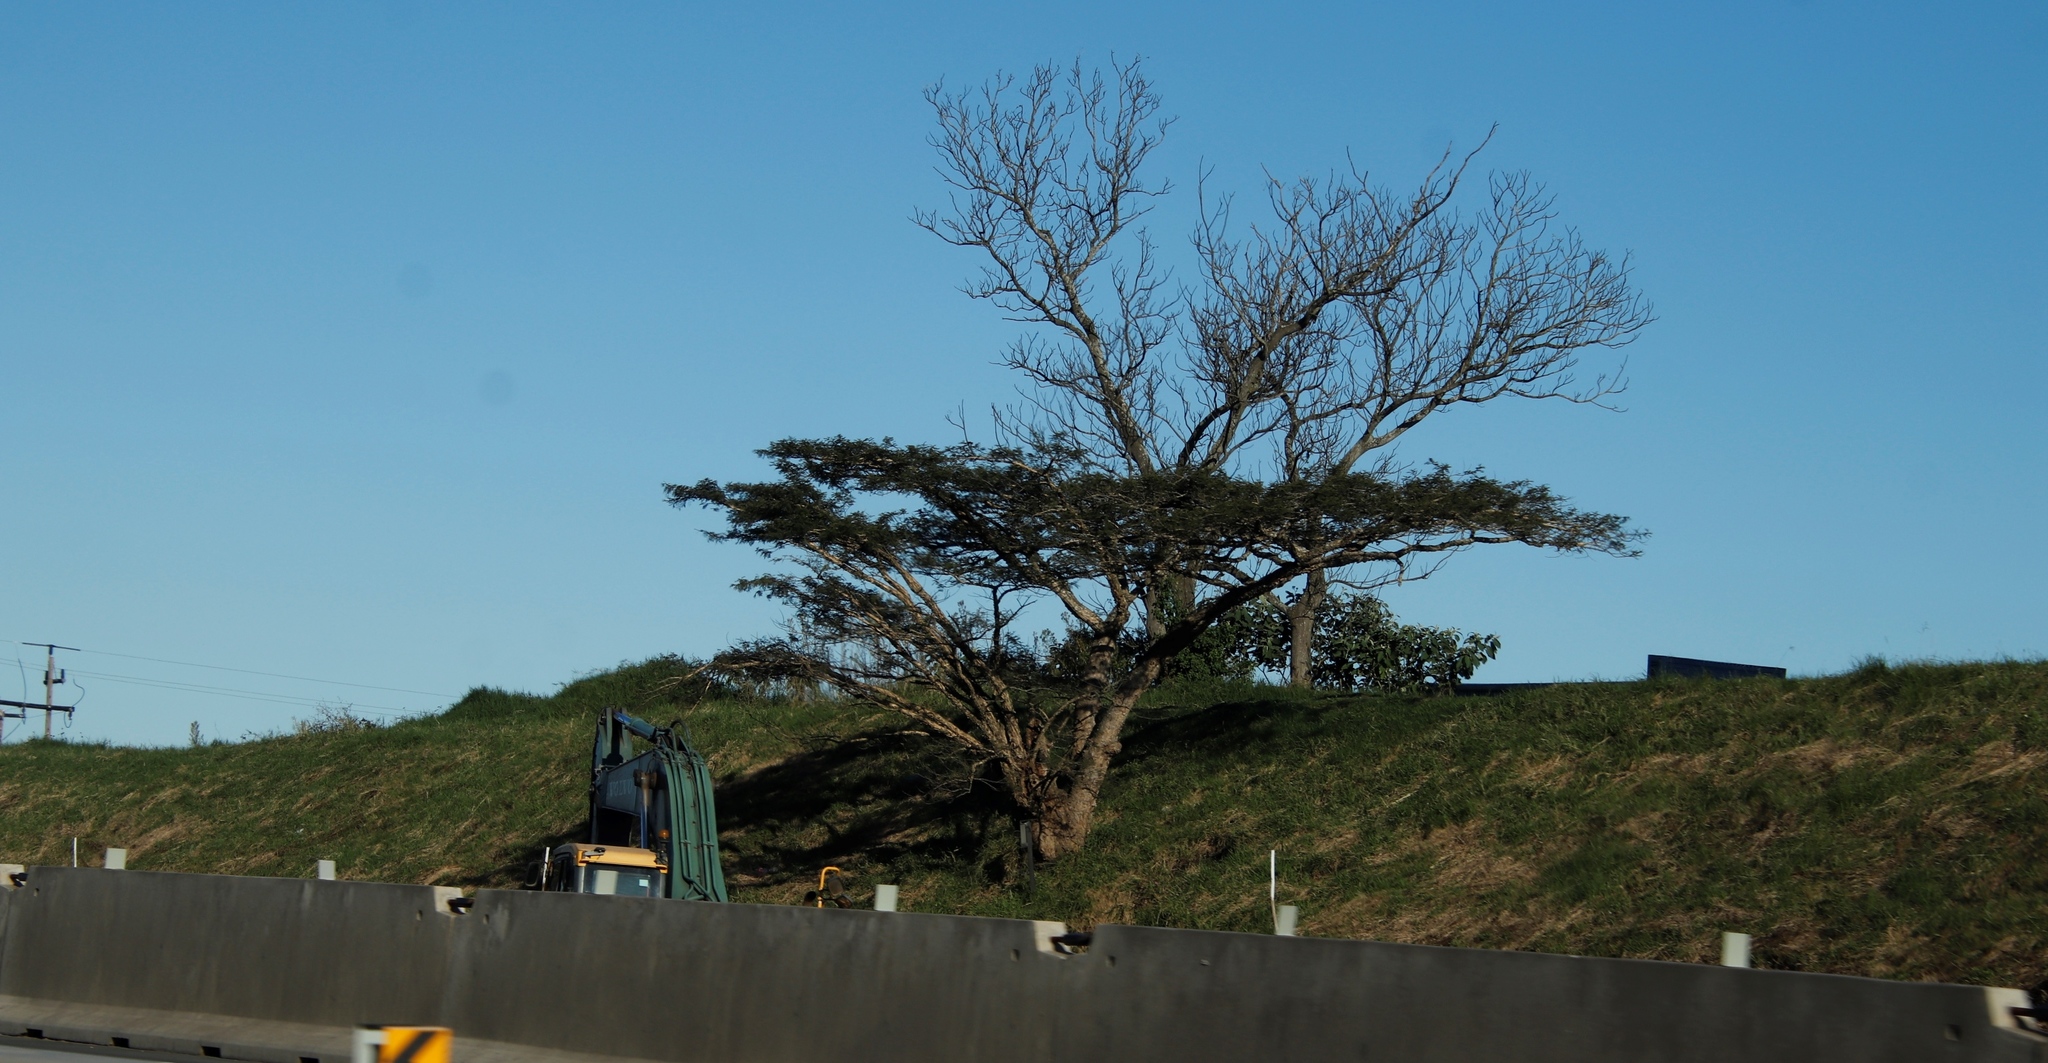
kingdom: Plantae
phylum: Tracheophyta
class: Magnoliopsida
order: Fabales
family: Fabaceae
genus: Vachellia
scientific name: Vachellia sieberiana
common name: Flat-topped thorn
